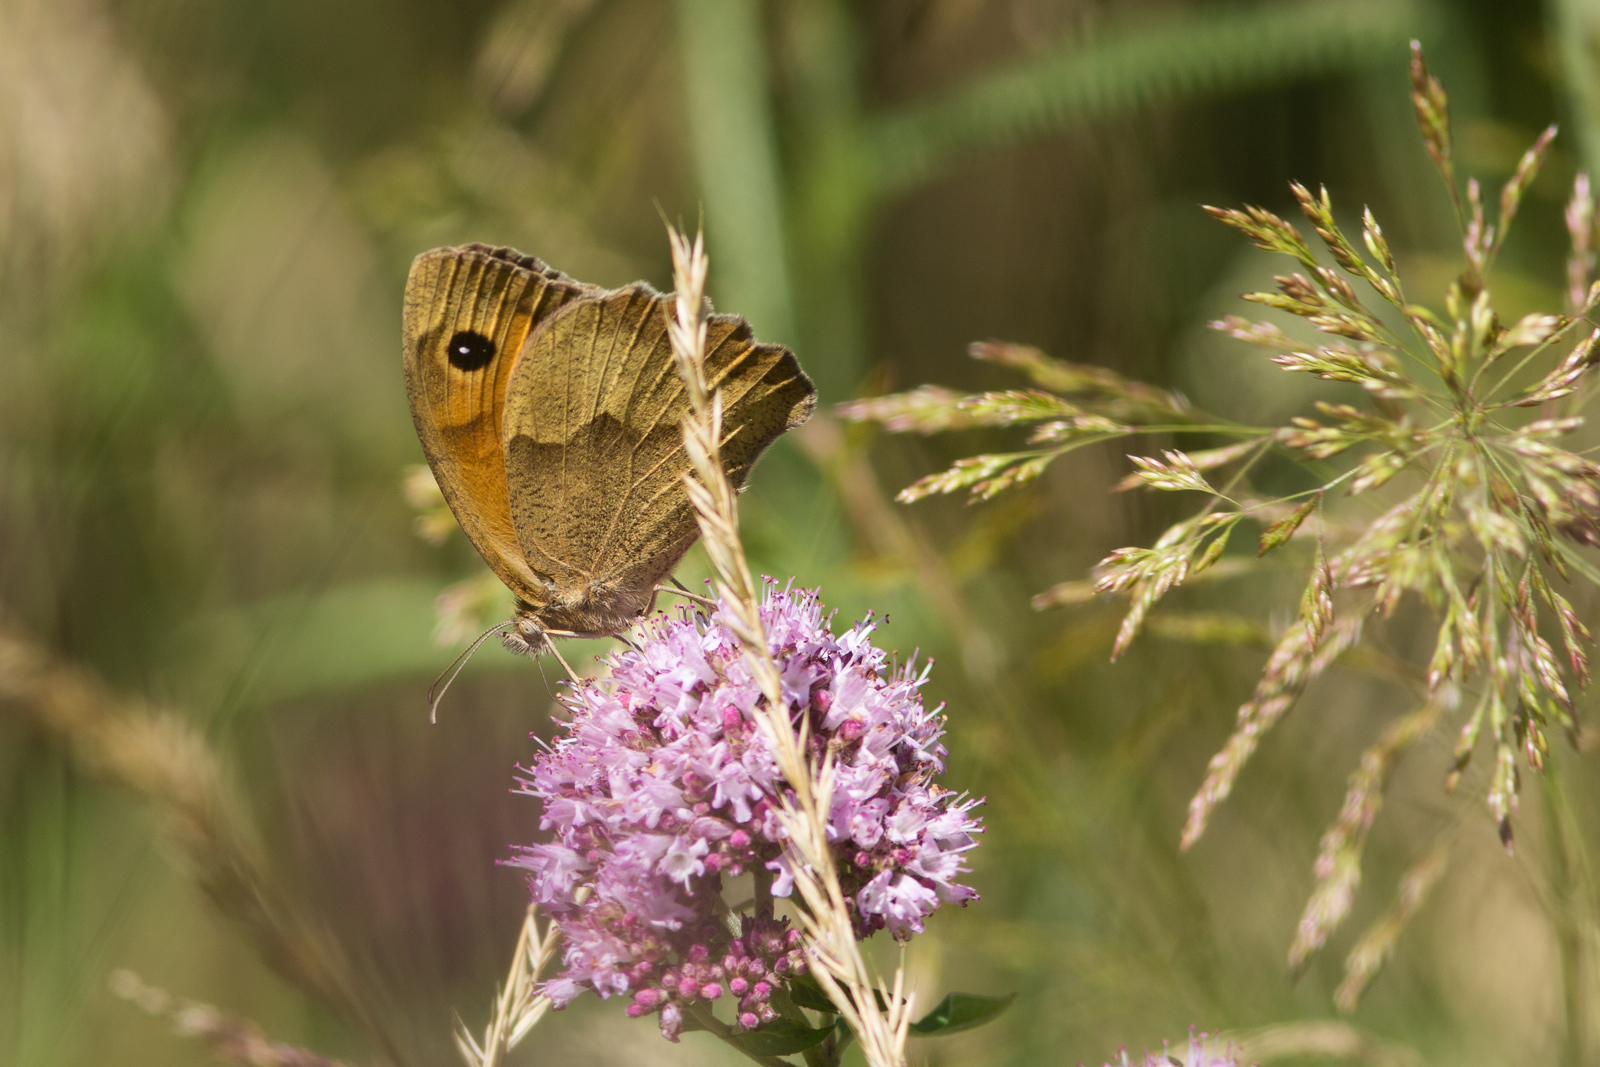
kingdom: Animalia
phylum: Arthropoda
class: Insecta
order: Lepidoptera
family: Nymphalidae
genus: Maniola
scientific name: Maniola jurtina
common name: Meadow brown
